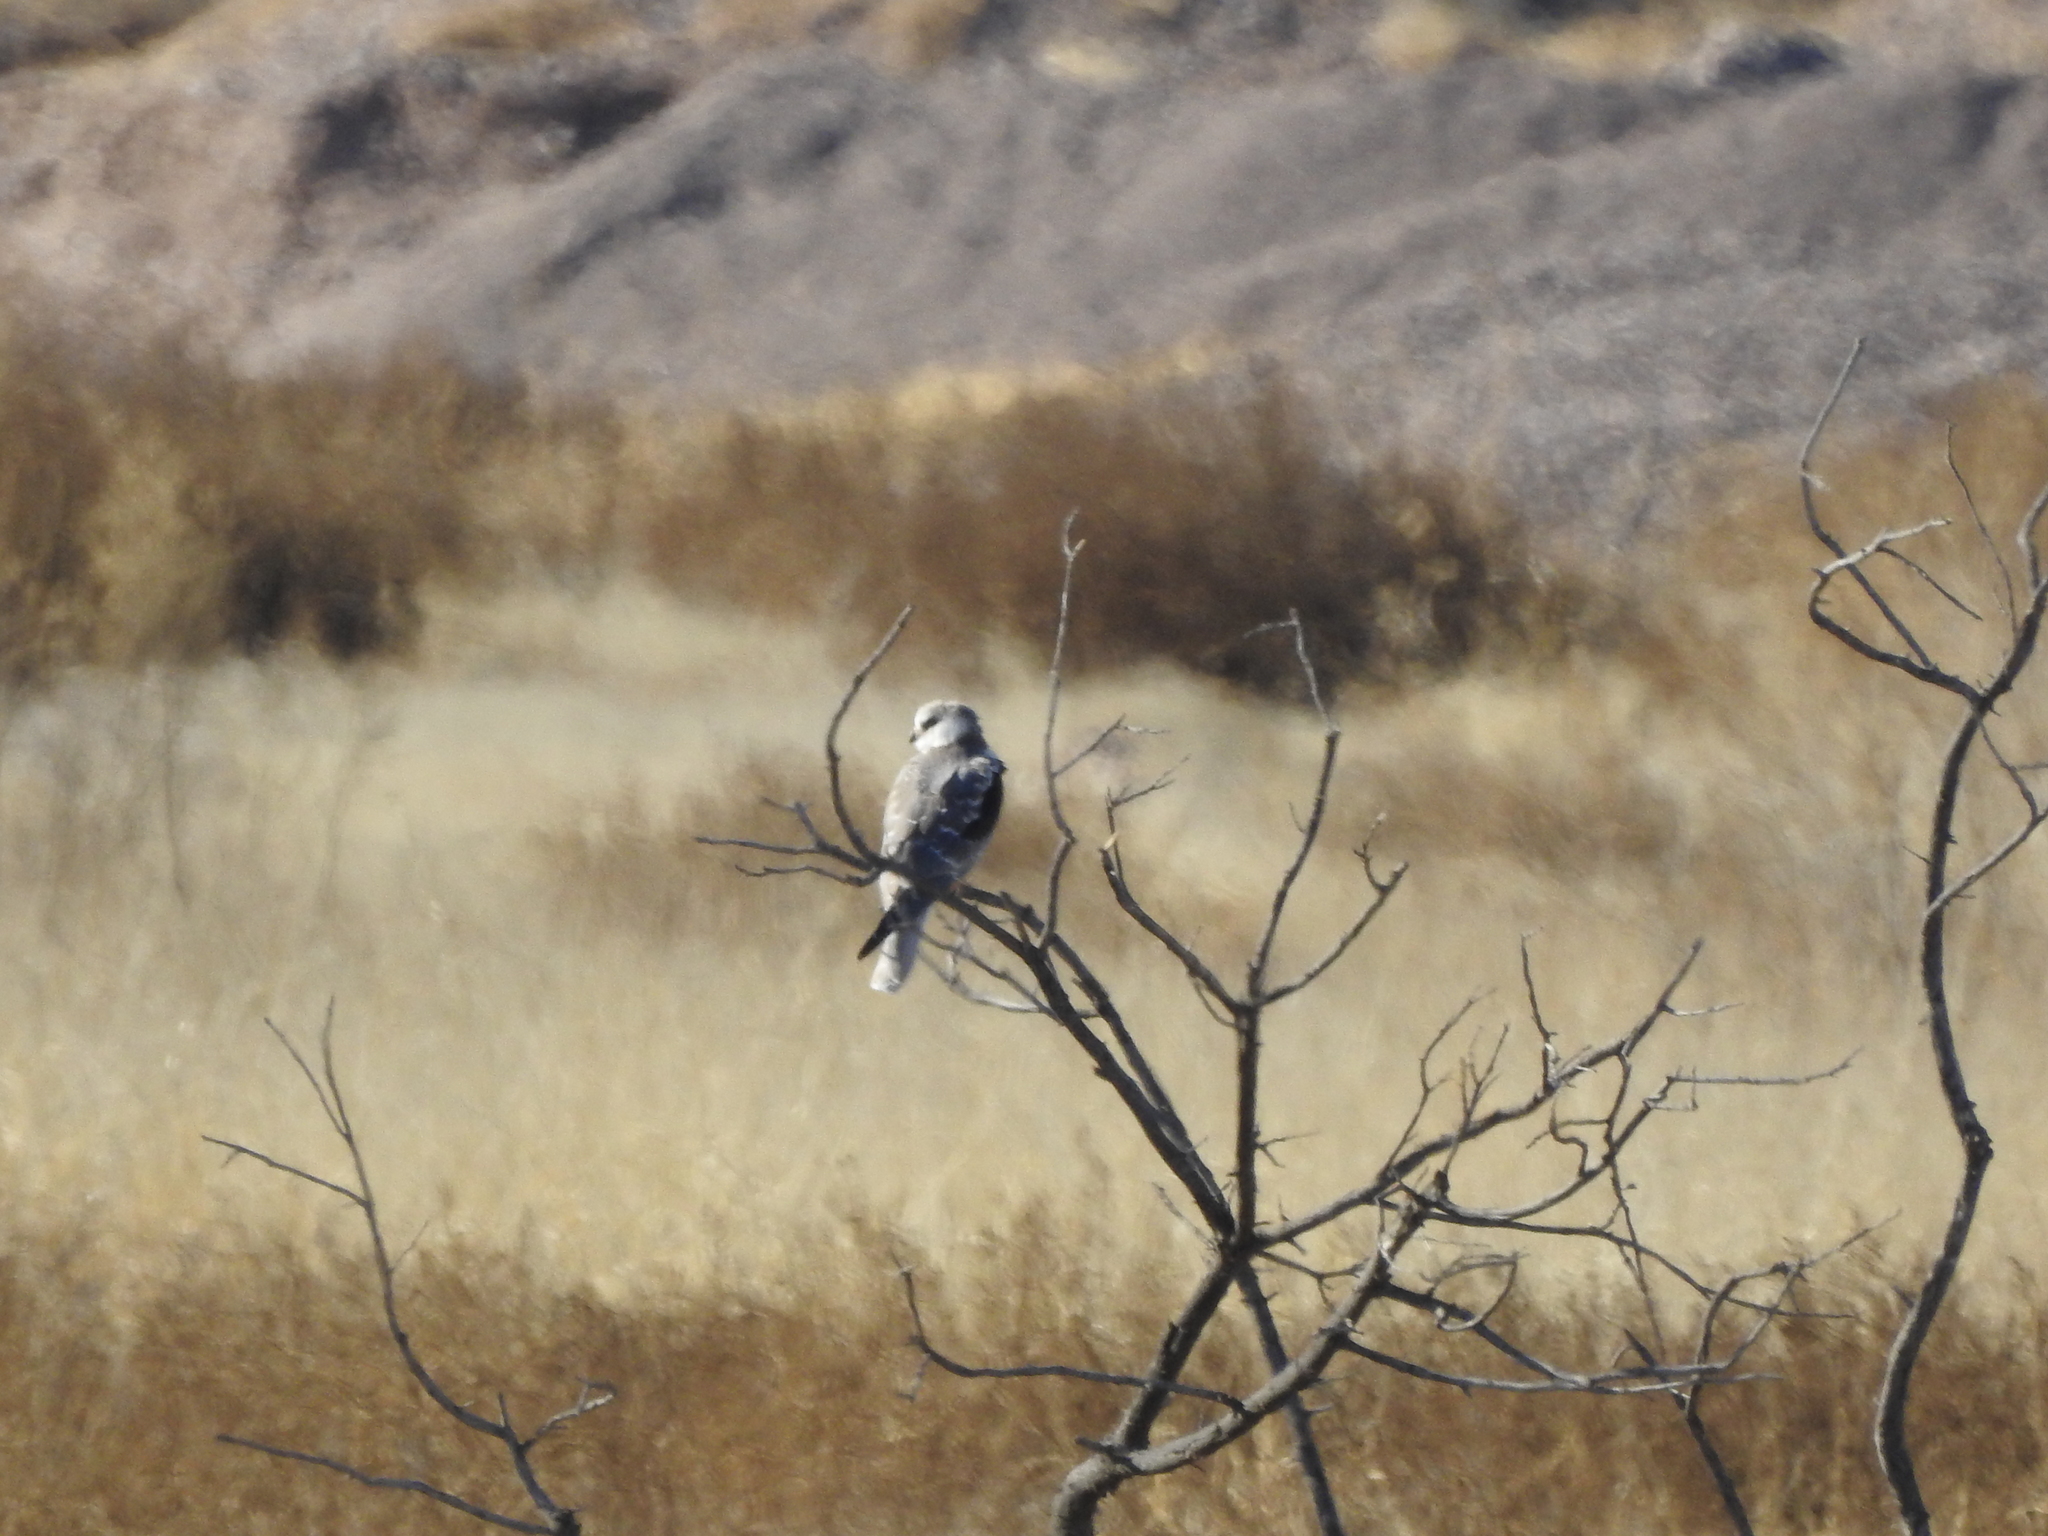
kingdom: Animalia
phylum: Chordata
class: Aves
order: Accipitriformes
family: Accipitridae
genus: Elanus
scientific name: Elanus leucurus
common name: White-tailed kite
